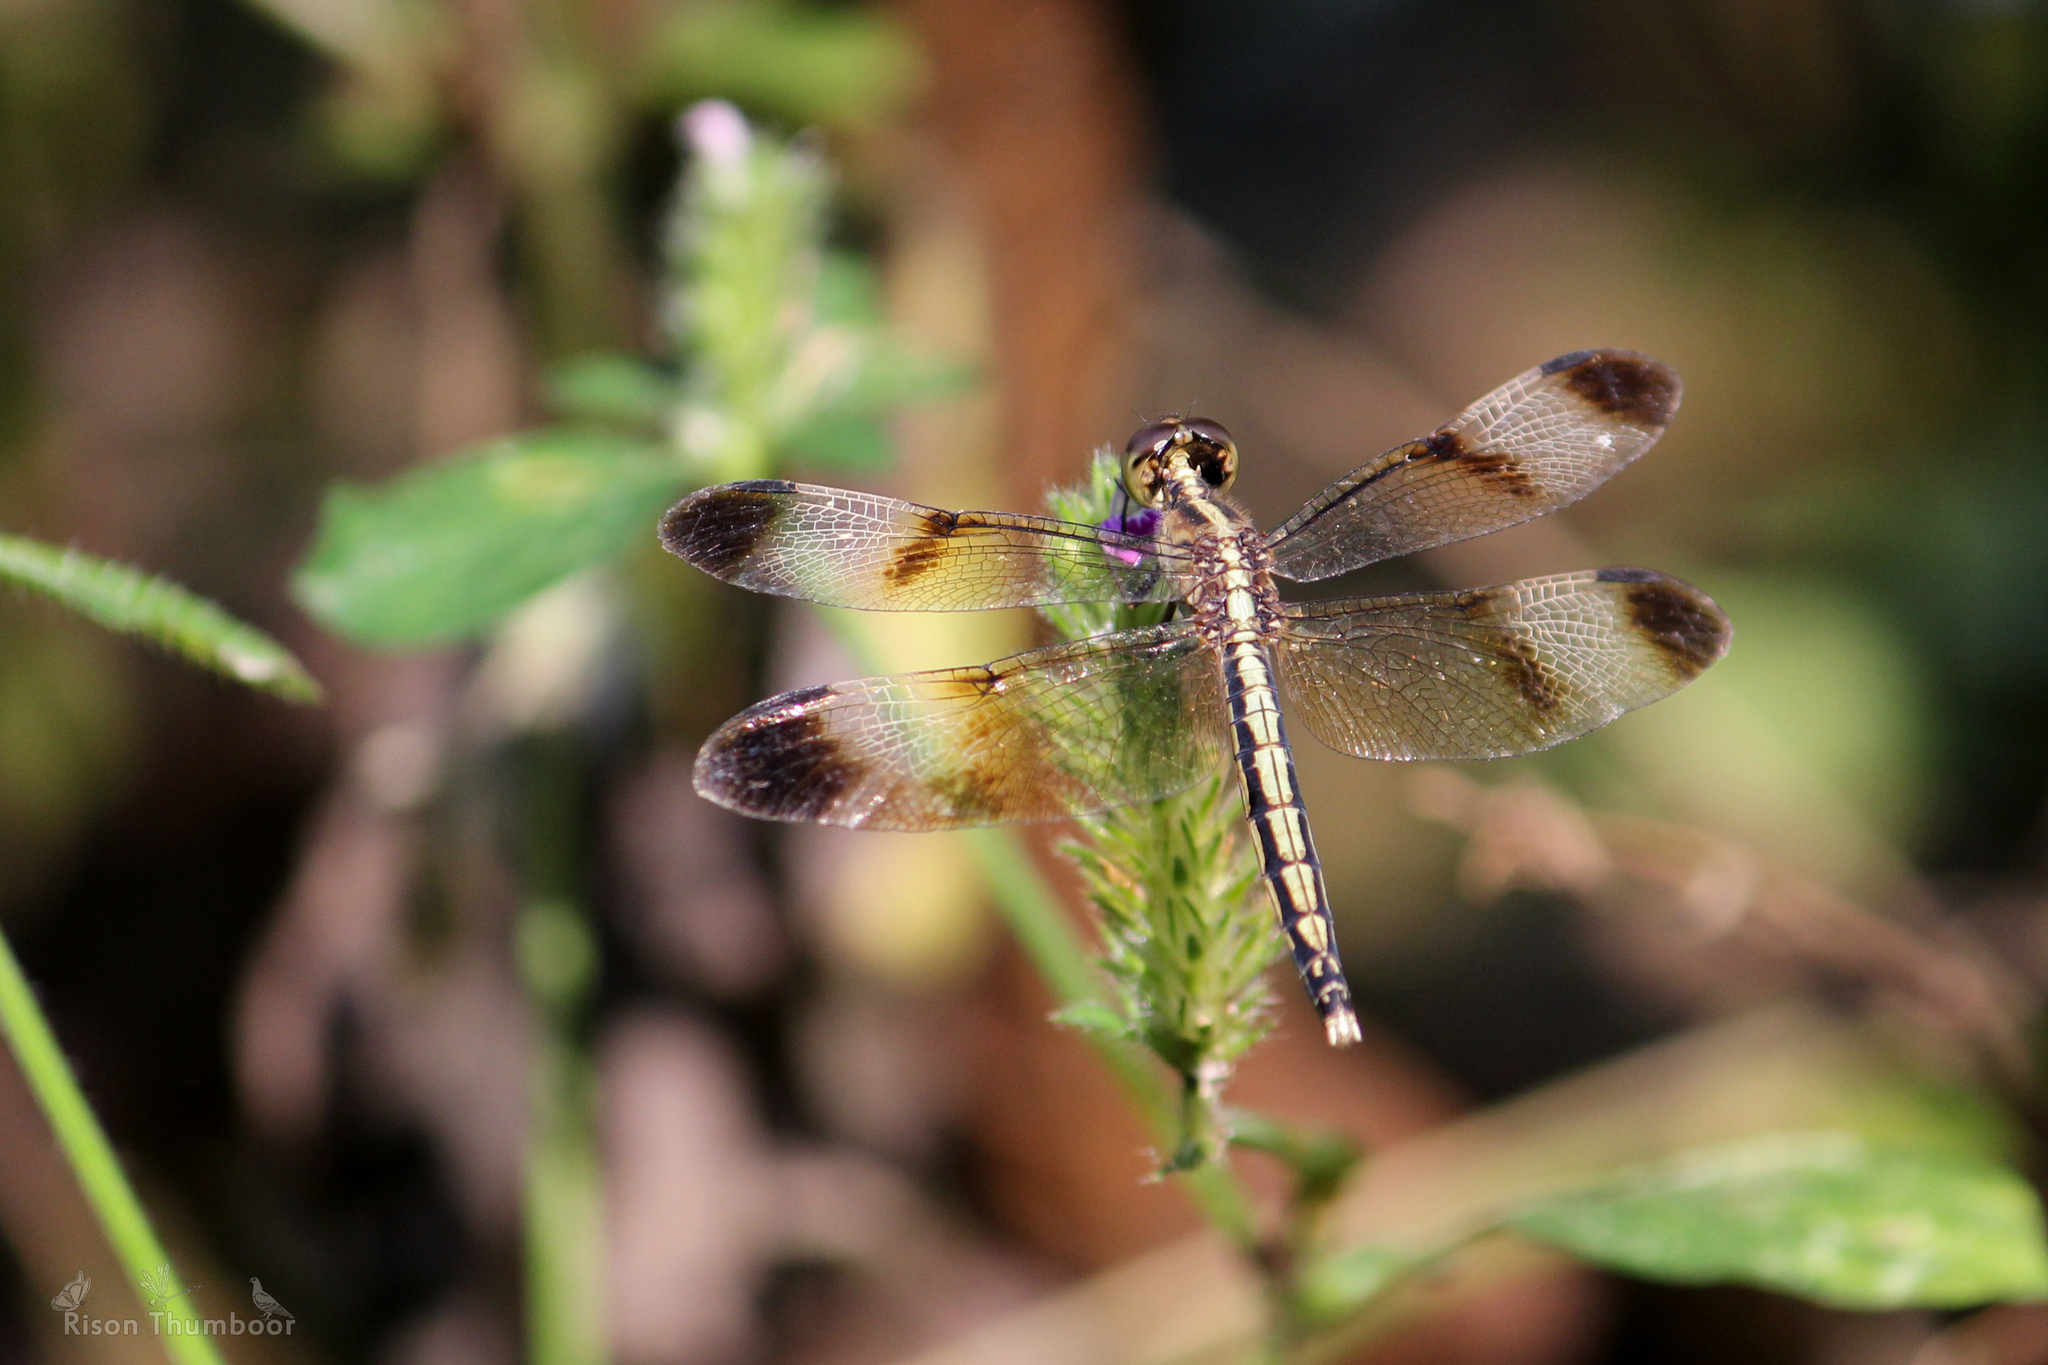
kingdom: Animalia
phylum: Arthropoda
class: Insecta
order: Odonata
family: Libellulidae
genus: Neurothemis
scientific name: Neurothemis tullia
